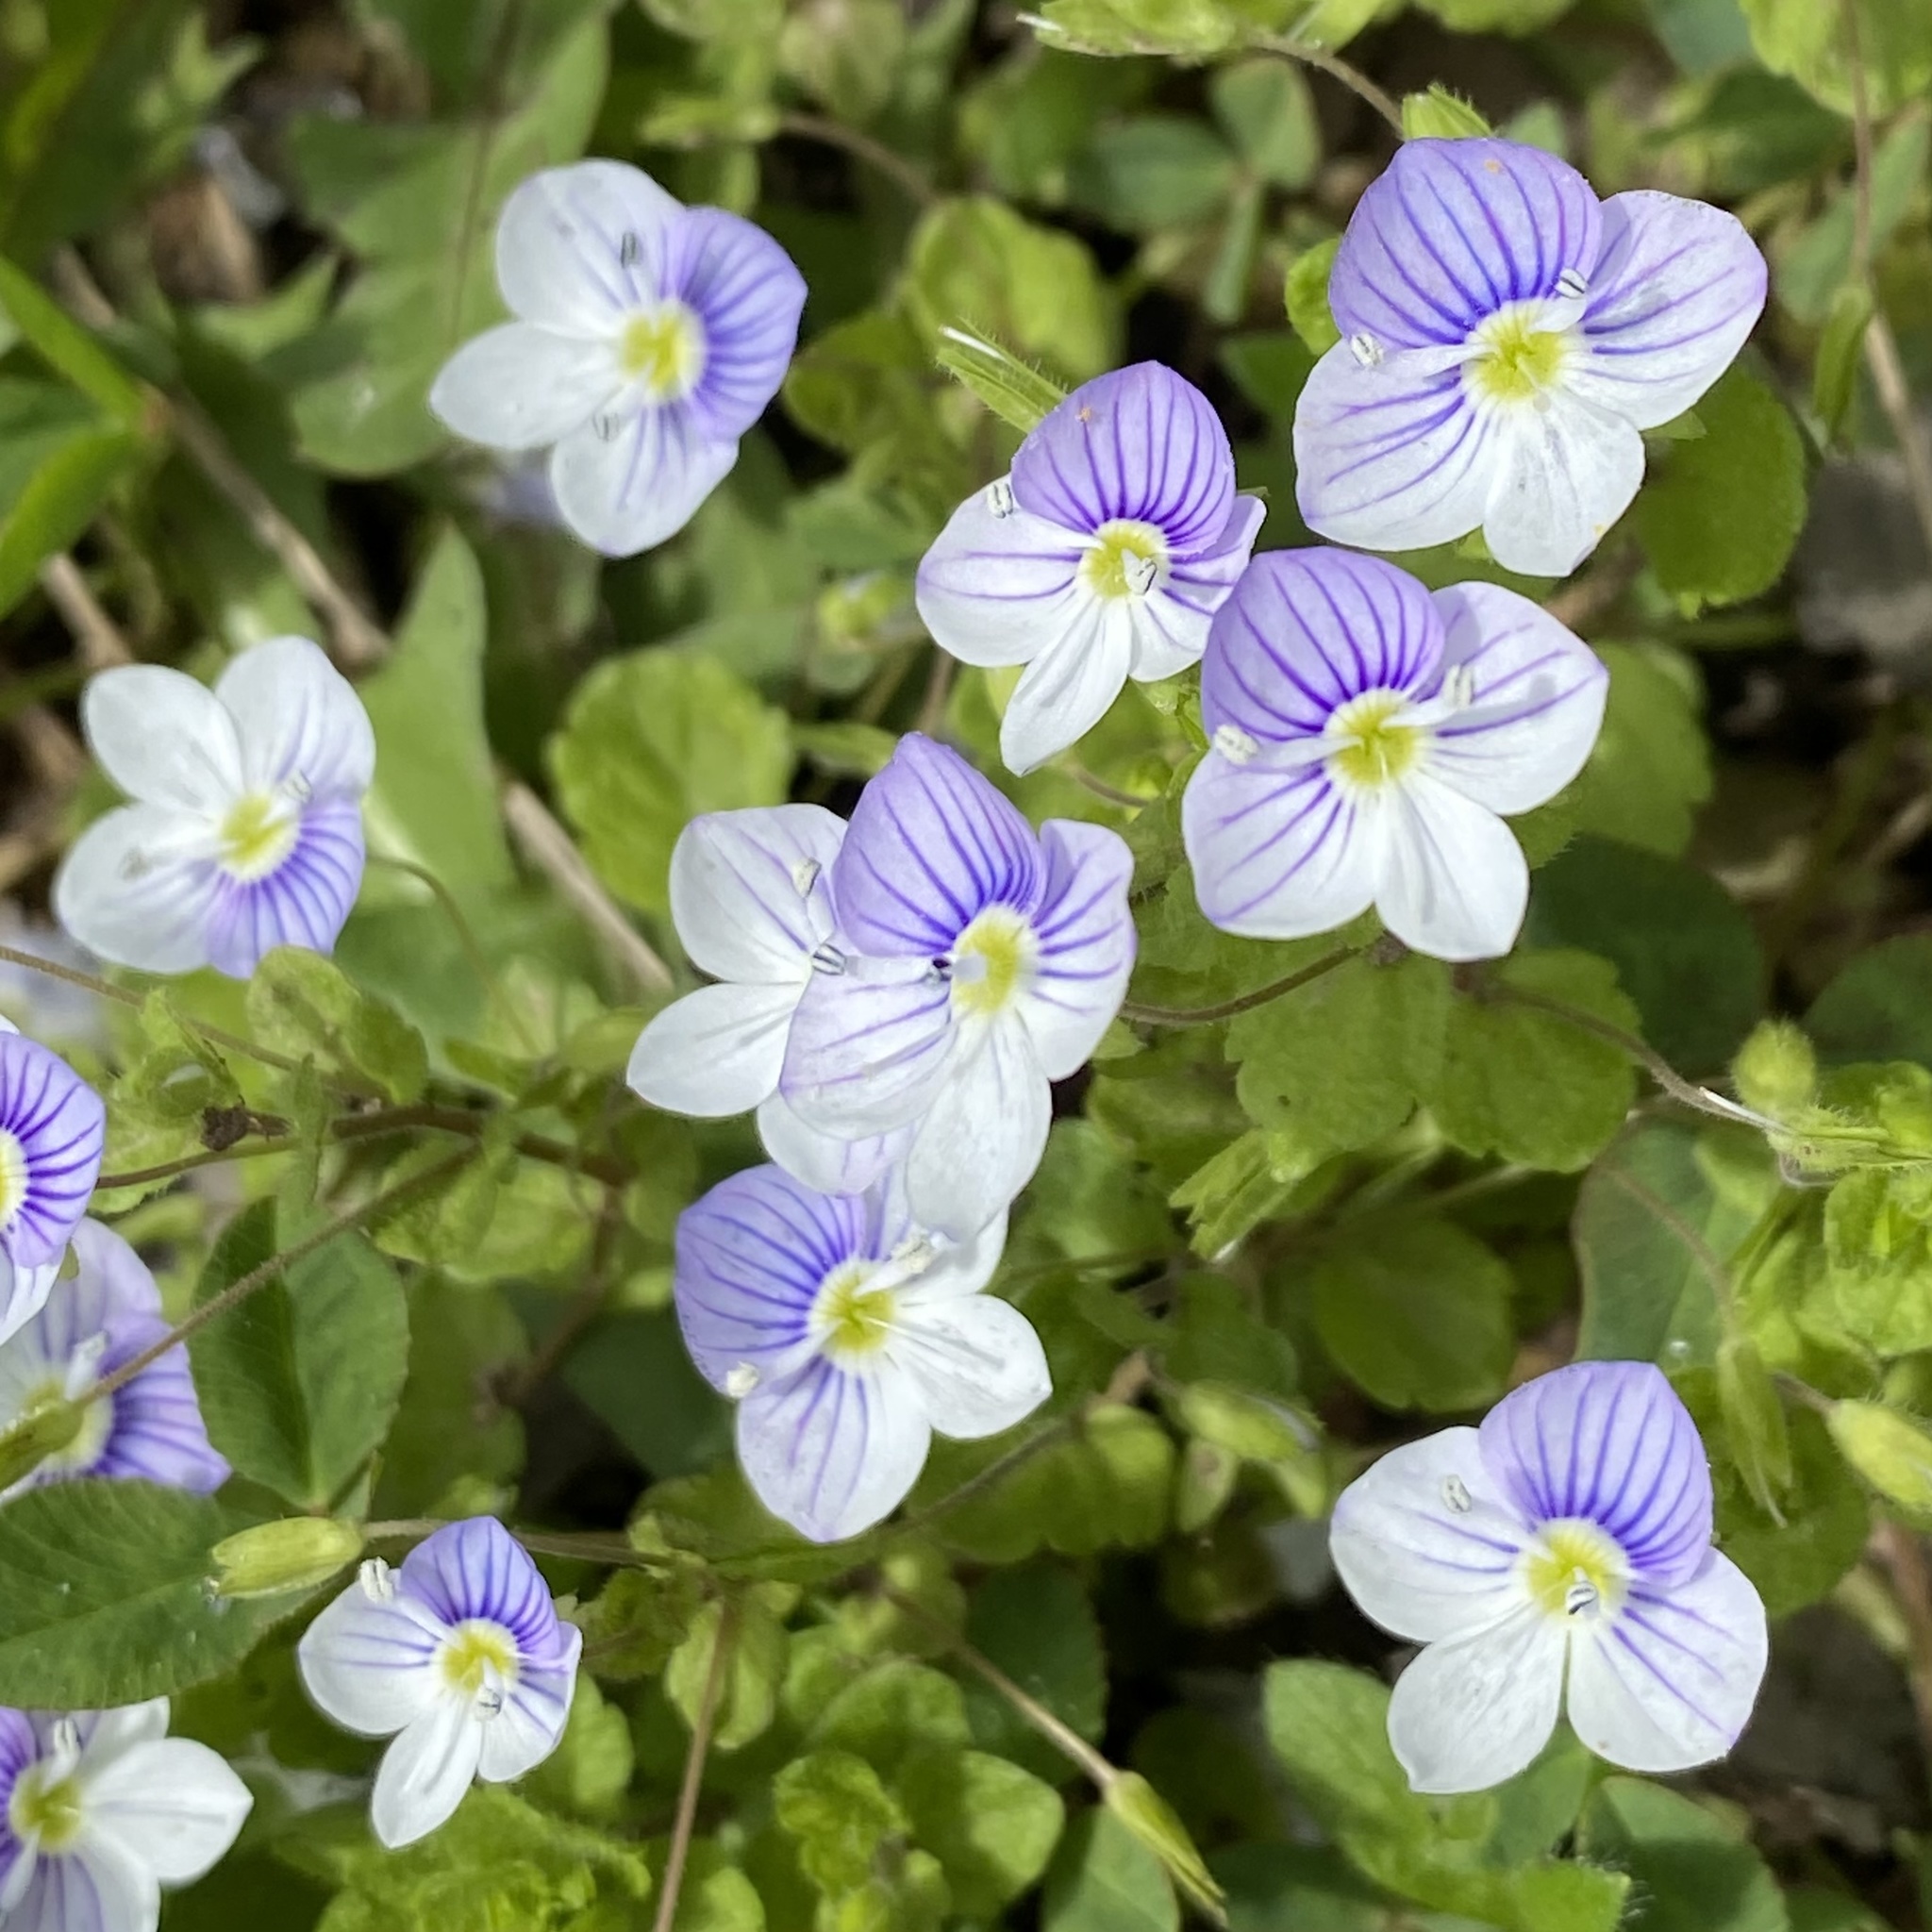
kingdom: Plantae
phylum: Tracheophyta
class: Magnoliopsida
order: Lamiales
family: Plantaginaceae
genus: Veronica
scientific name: Veronica filiformis
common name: Slender speedwell
